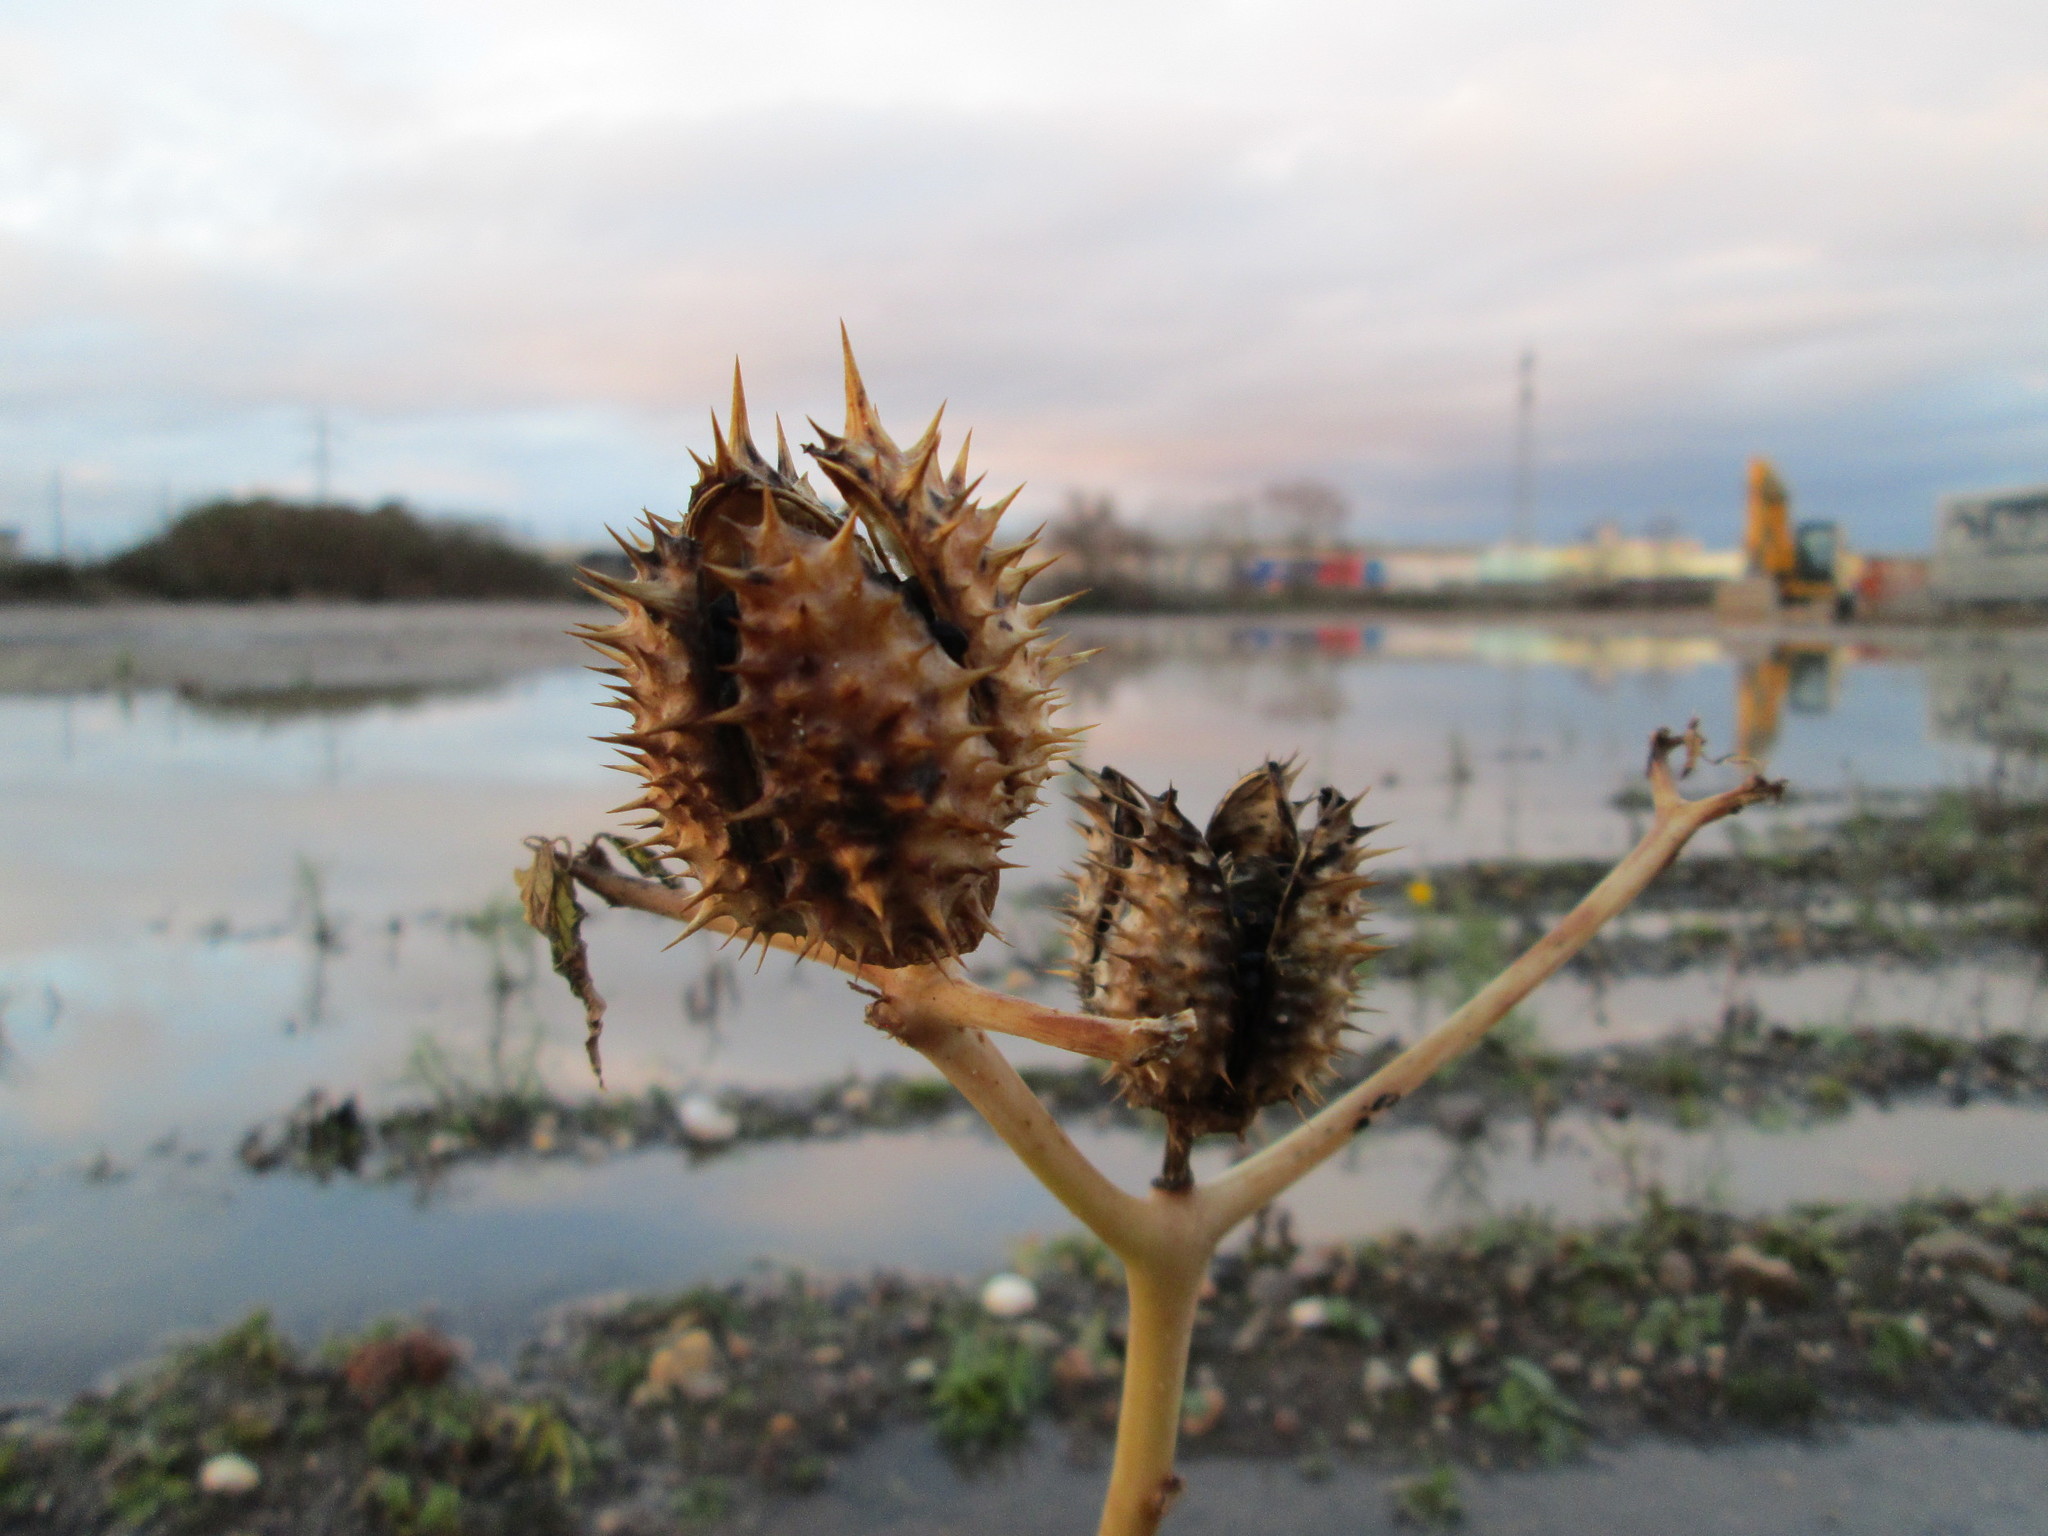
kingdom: Plantae
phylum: Tracheophyta
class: Magnoliopsida
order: Solanales
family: Solanaceae
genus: Datura
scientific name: Datura stramonium
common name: Thorn-apple
